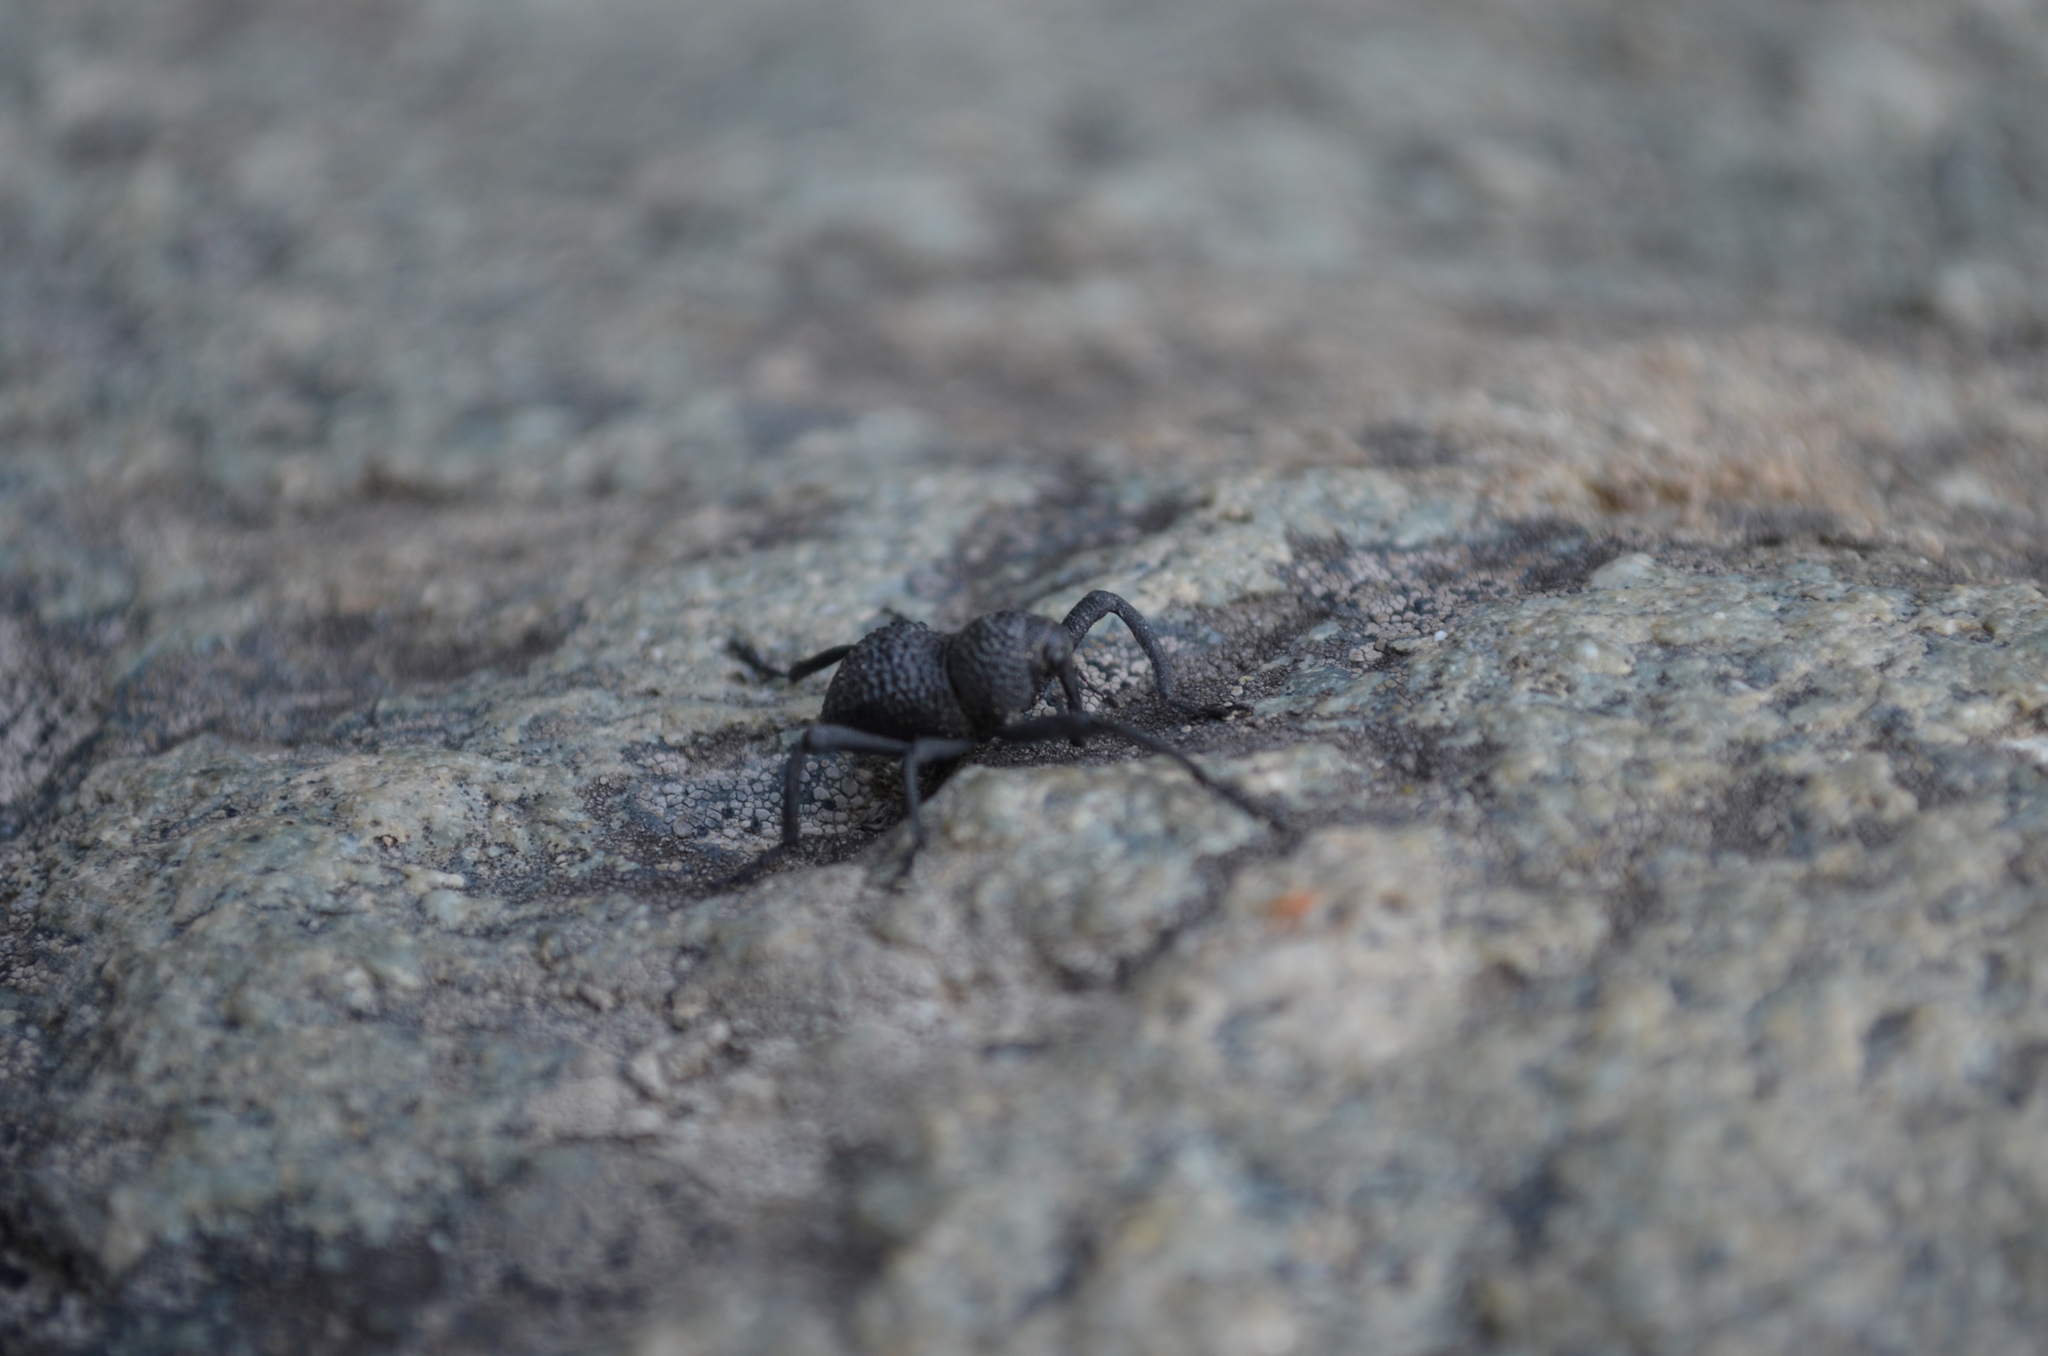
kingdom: Animalia
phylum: Arthropoda
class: Insecta
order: Coleoptera
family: Curculionidae
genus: Rhyephenes
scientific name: Rhyephenes maillei
